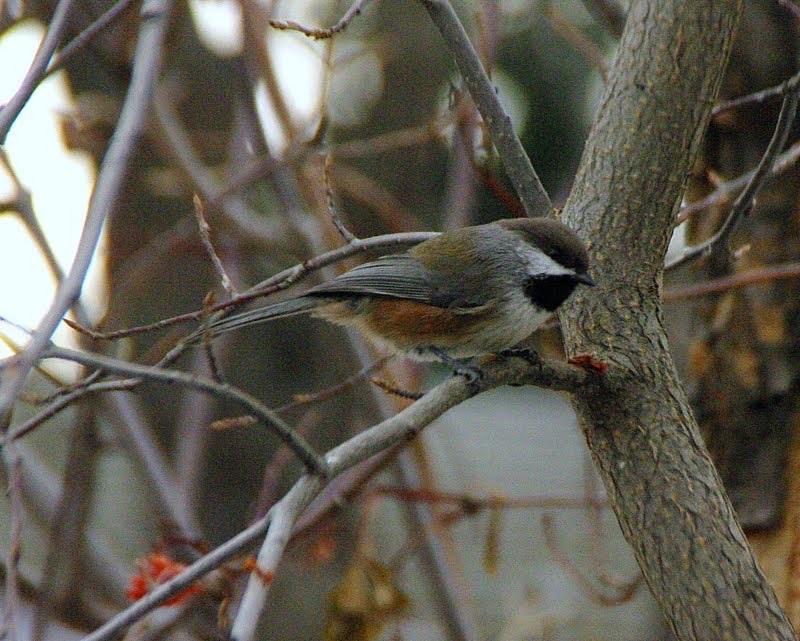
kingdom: Animalia
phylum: Chordata
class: Aves
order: Passeriformes
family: Paridae
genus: Poecile
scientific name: Poecile hudsonicus
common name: Boreal chickadee
